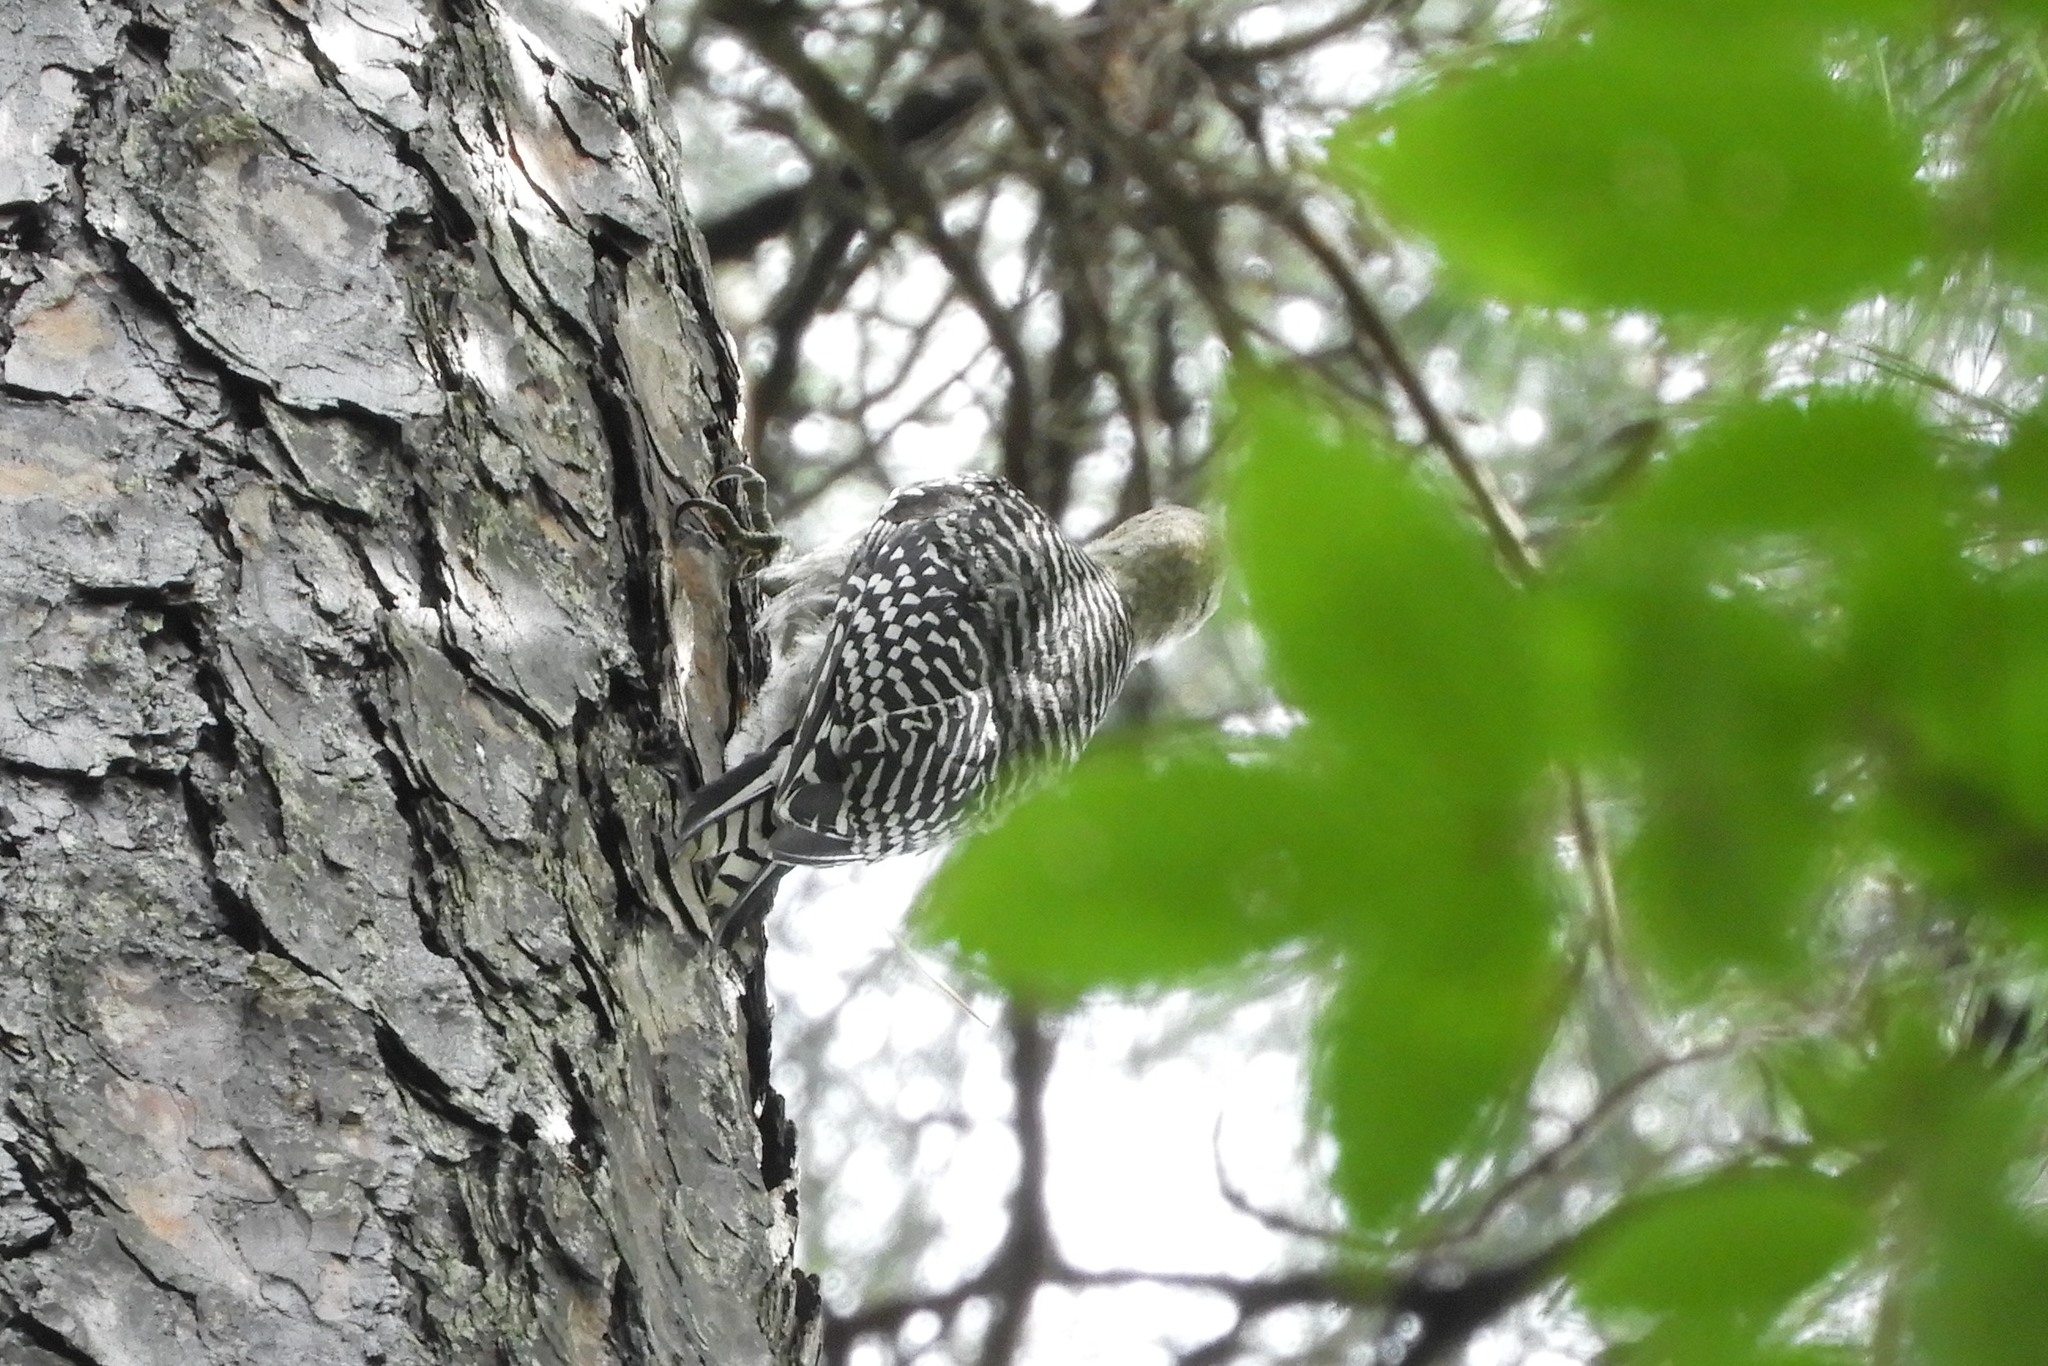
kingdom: Animalia
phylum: Chordata
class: Aves
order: Piciformes
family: Picidae
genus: Melanerpes
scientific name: Melanerpes carolinus
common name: Red-bellied woodpecker
